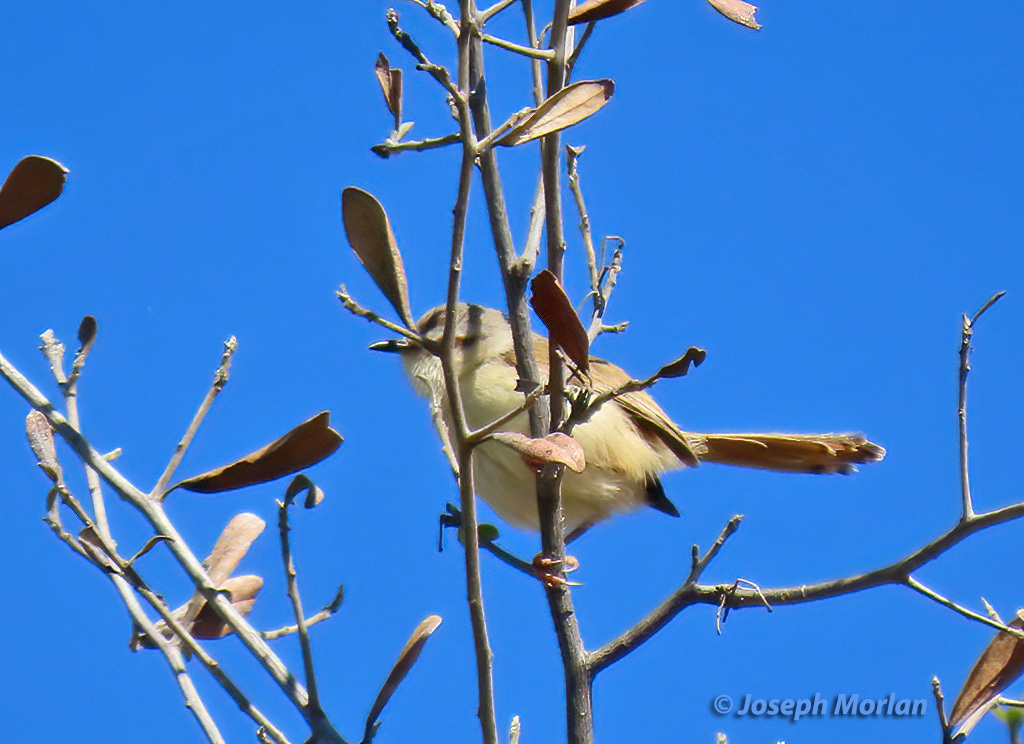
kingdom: Animalia
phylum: Chordata
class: Aves
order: Passeriformes
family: Cisticolidae
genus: Prinia
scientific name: Prinia flavicans
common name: Black-chested prinia
